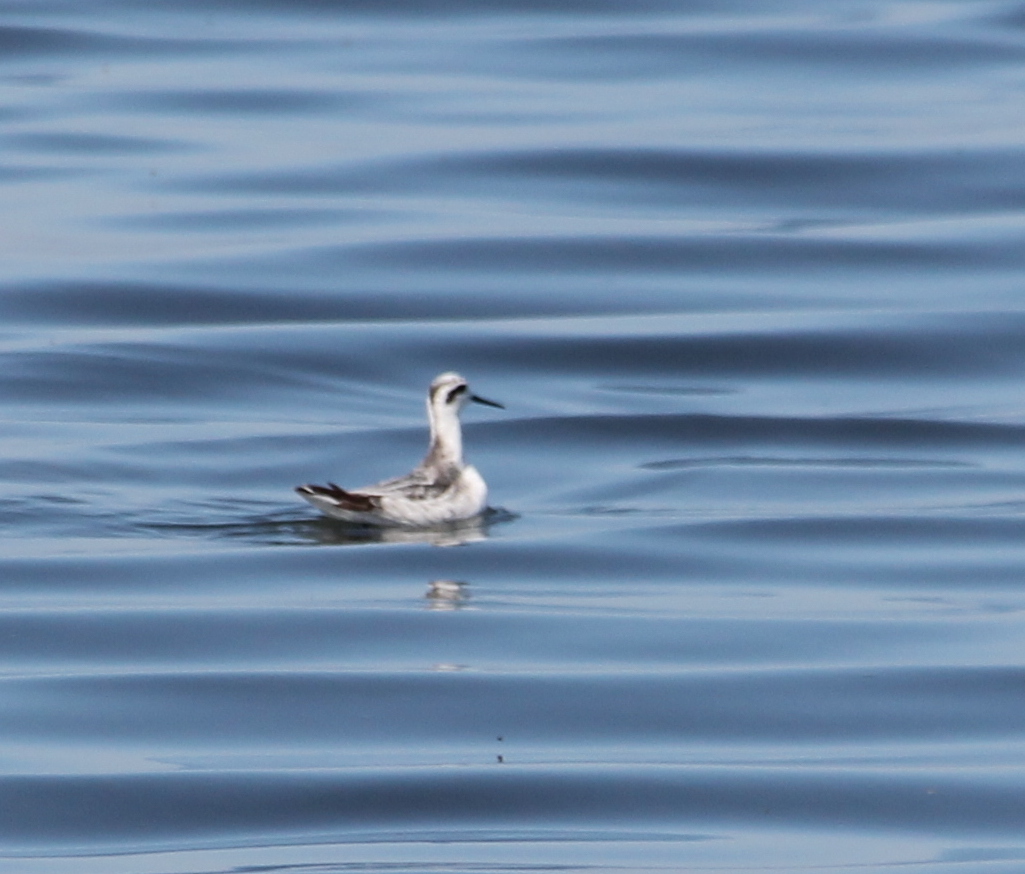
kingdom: Animalia
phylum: Chordata
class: Aves
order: Charadriiformes
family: Scolopacidae
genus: Phalaropus
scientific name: Phalaropus lobatus
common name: Red-necked phalarope
